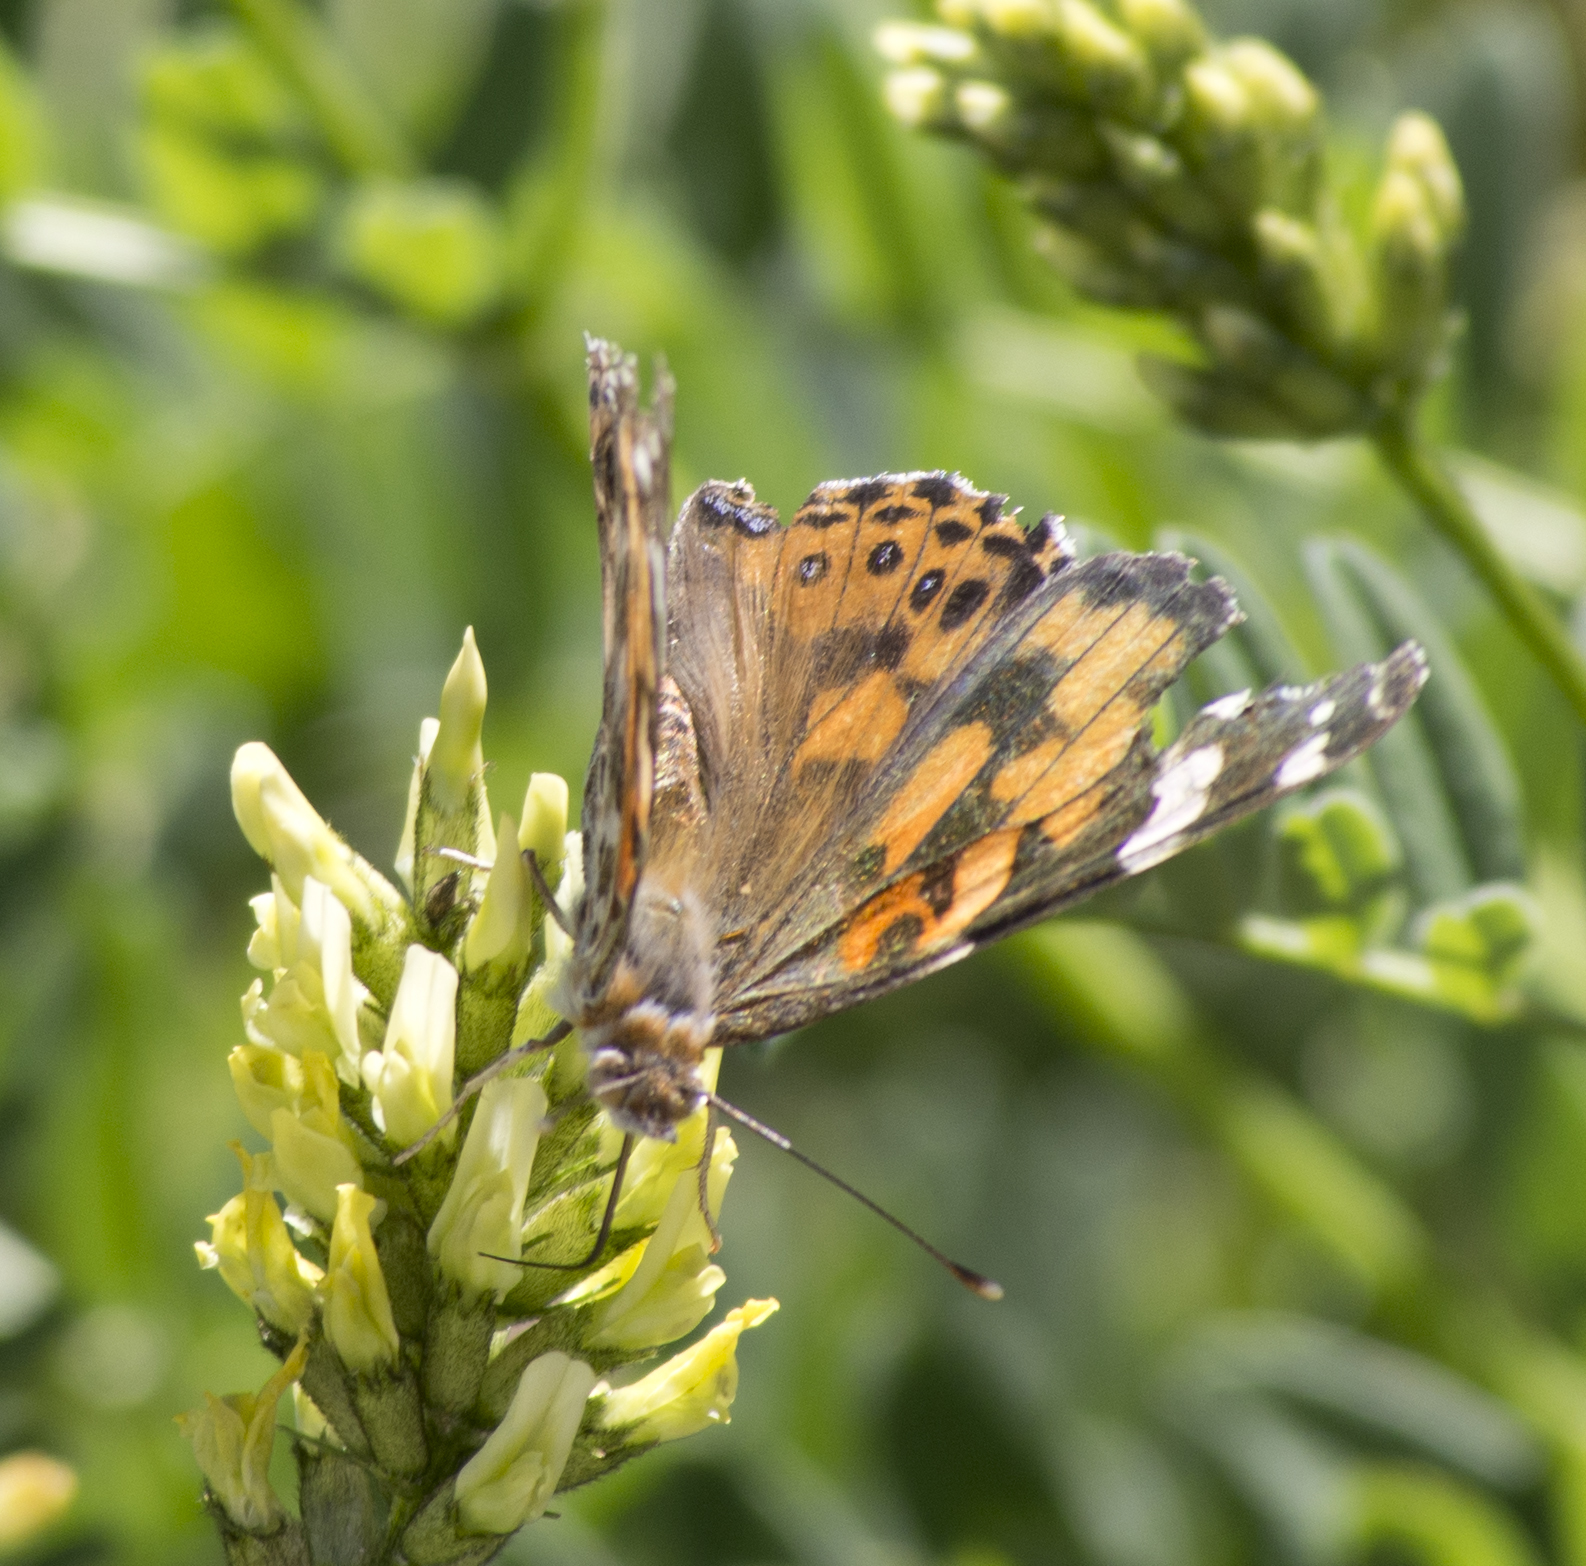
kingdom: Animalia
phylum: Arthropoda
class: Insecta
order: Lepidoptera
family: Nymphalidae
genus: Vanessa
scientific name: Vanessa cardui
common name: Painted lady
